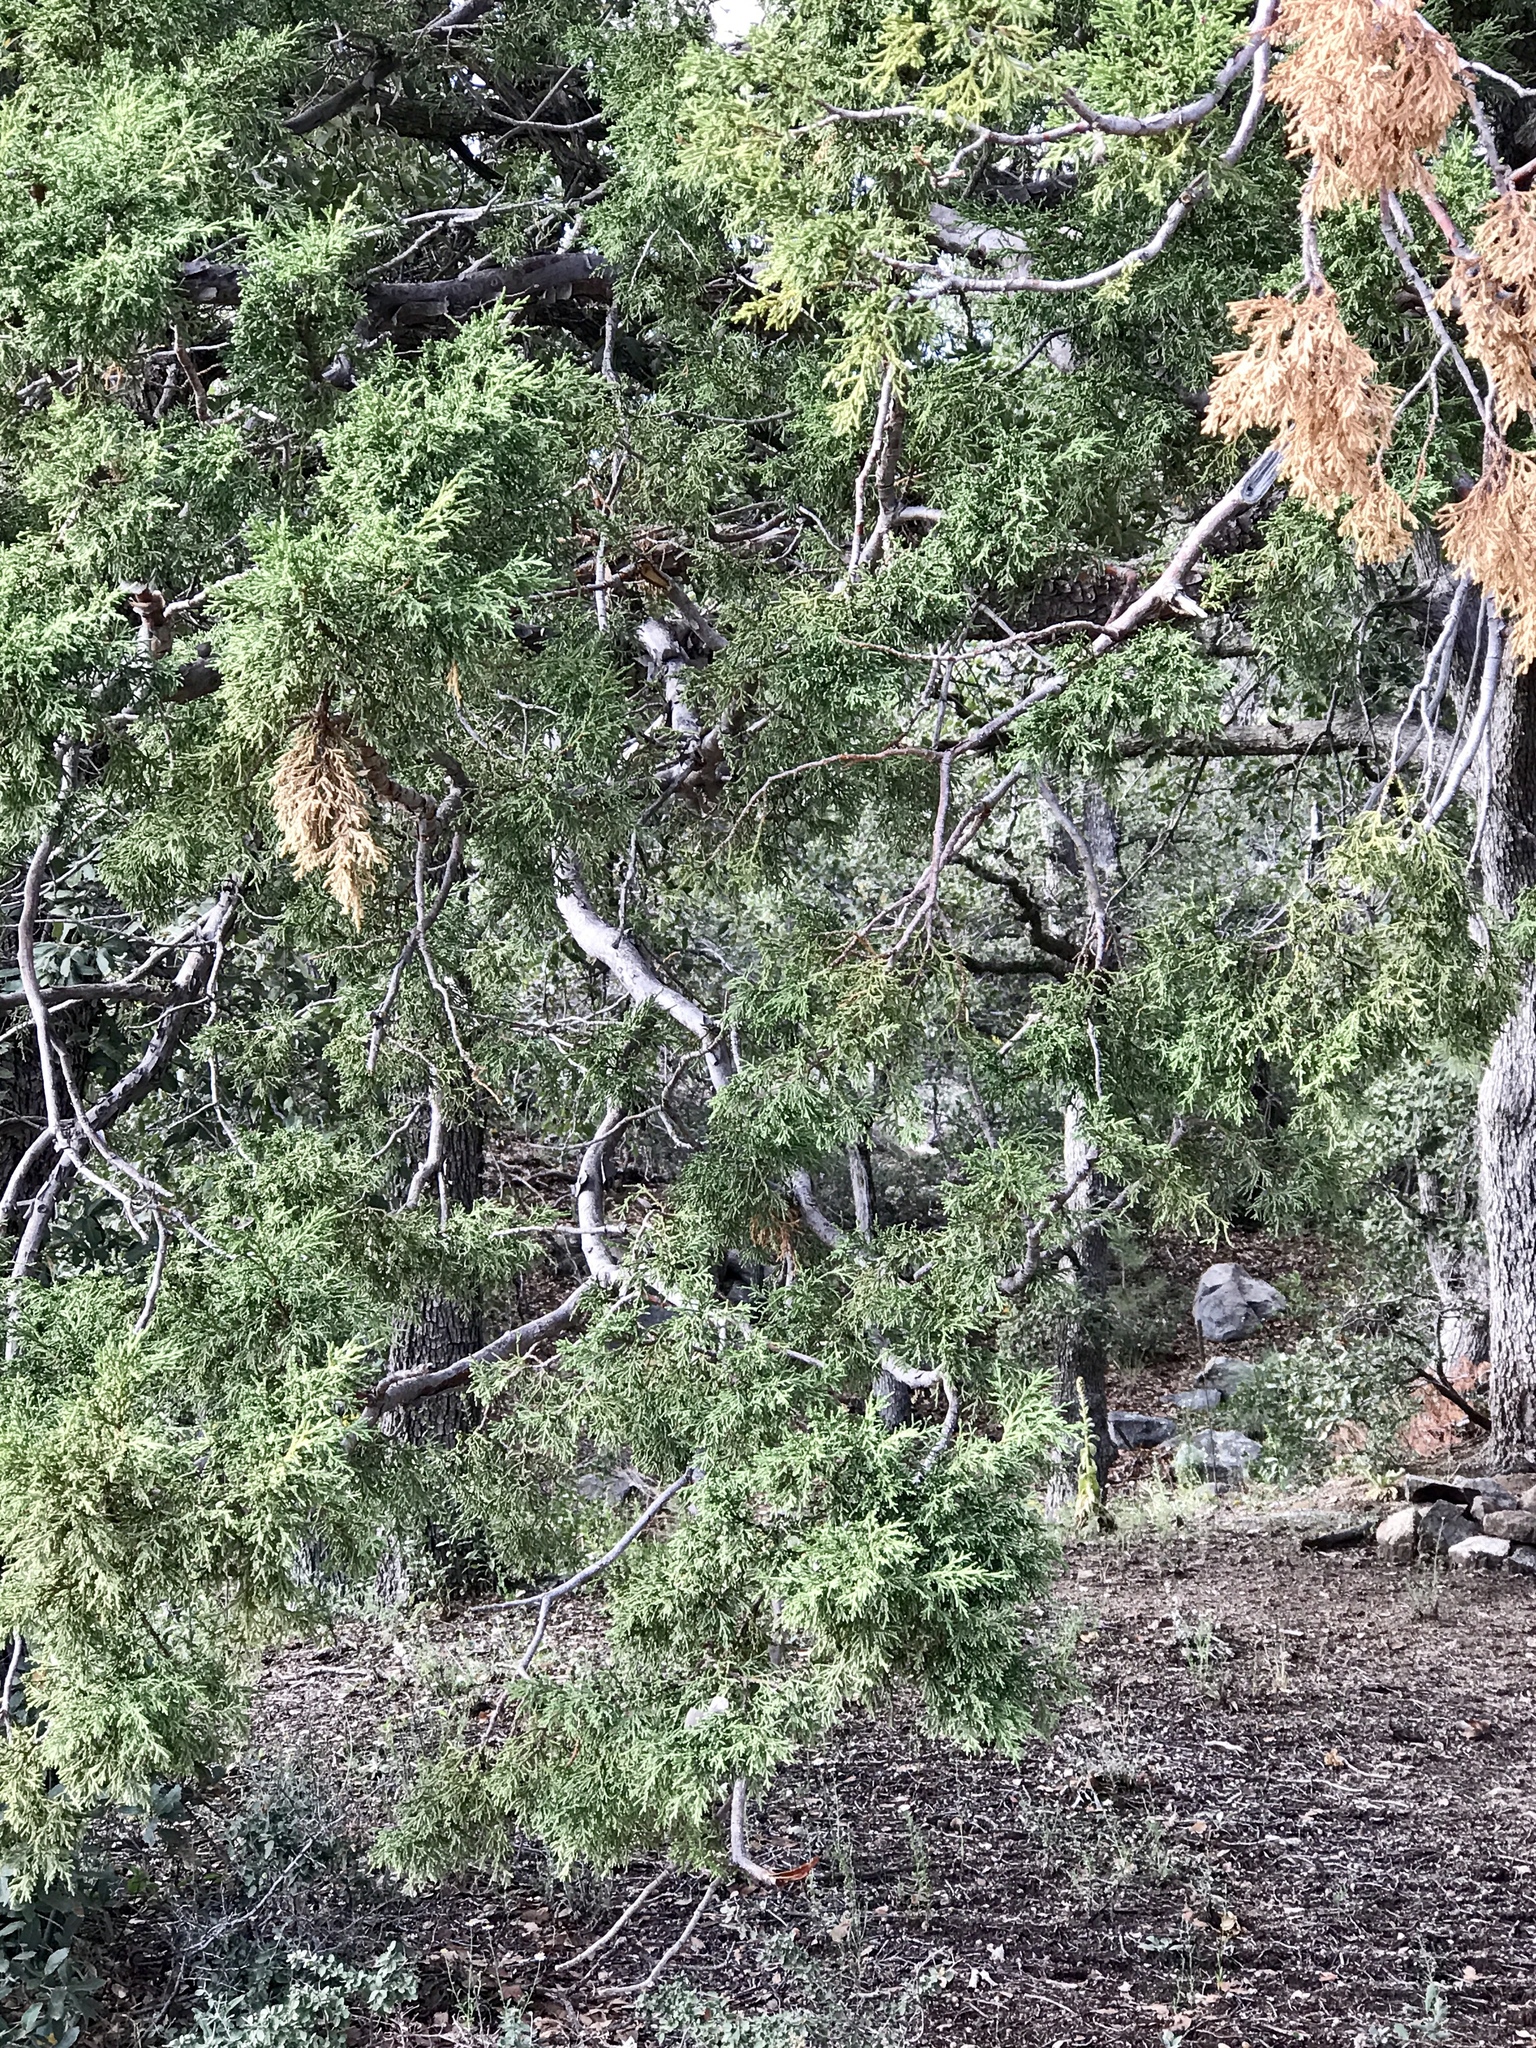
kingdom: Plantae
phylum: Tracheophyta
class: Pinopsida
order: Pinales
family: Cupressaceae
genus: Juniperus
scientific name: Juniperus deppeana
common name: Alligator juniper
